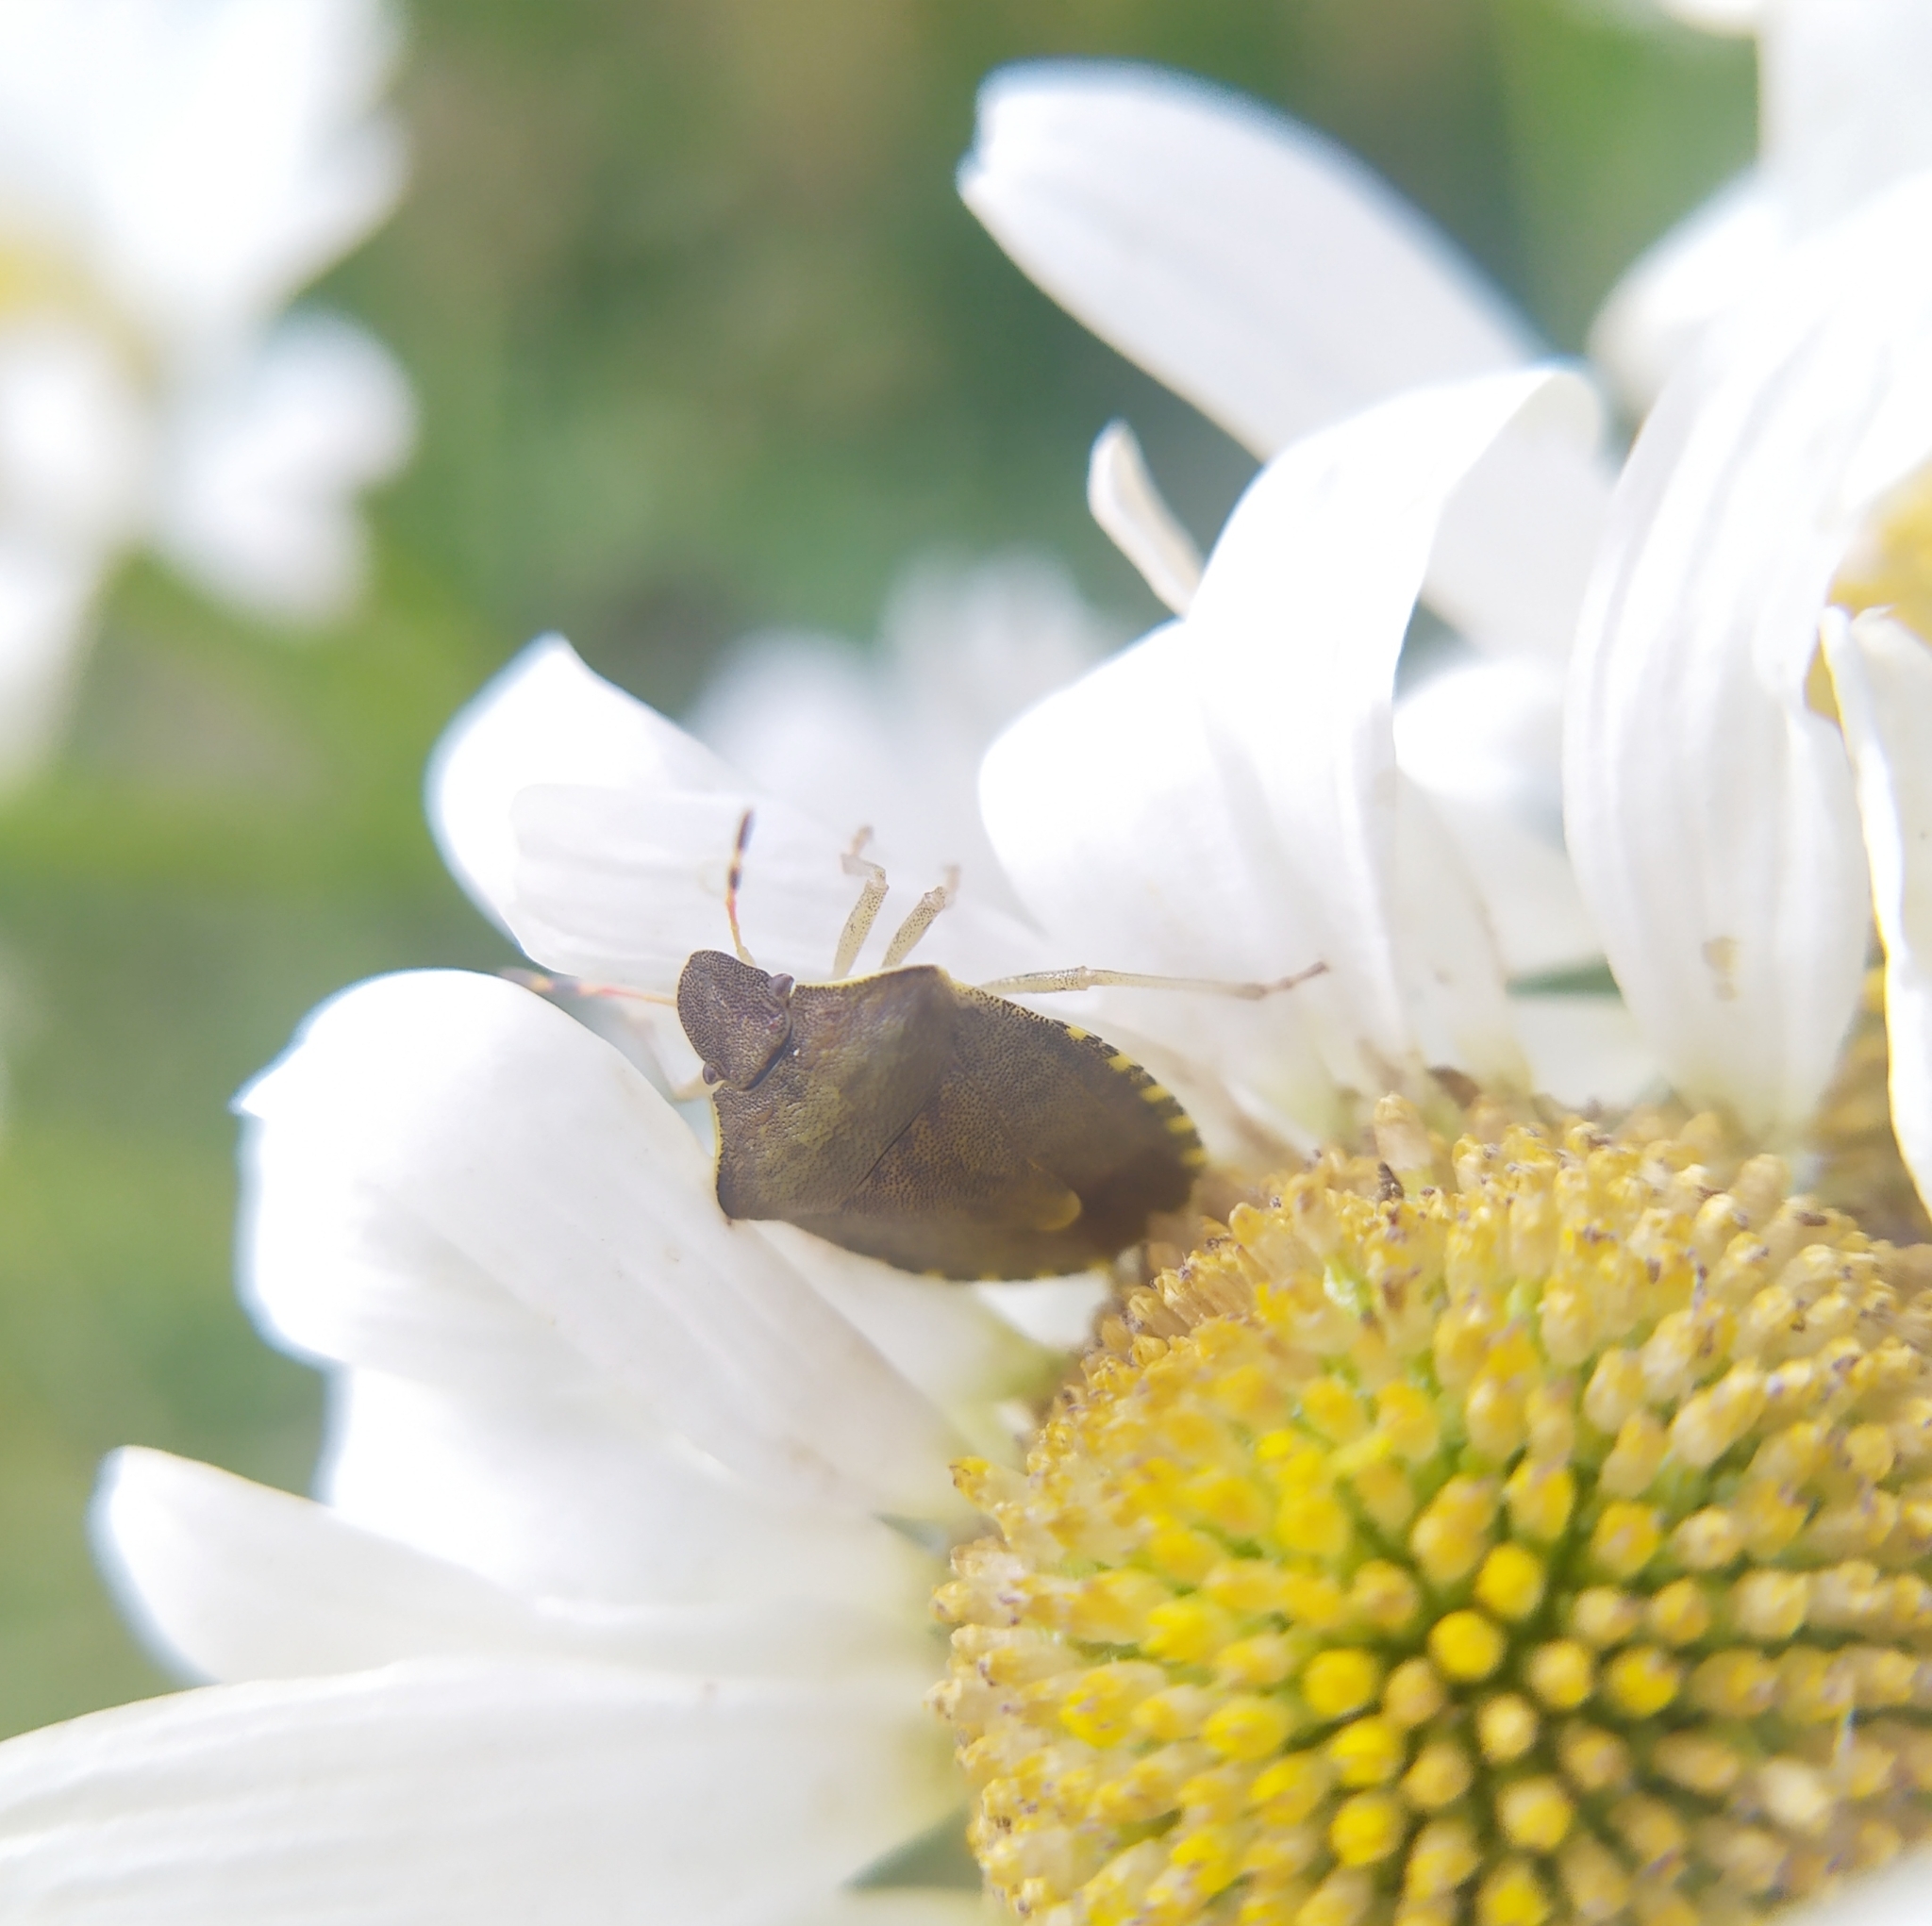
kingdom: Animalia
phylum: Arthropoda
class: Insecta
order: Hemiptera
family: Pentatomidae
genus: Holcostethus
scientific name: Holcostethus strictus
